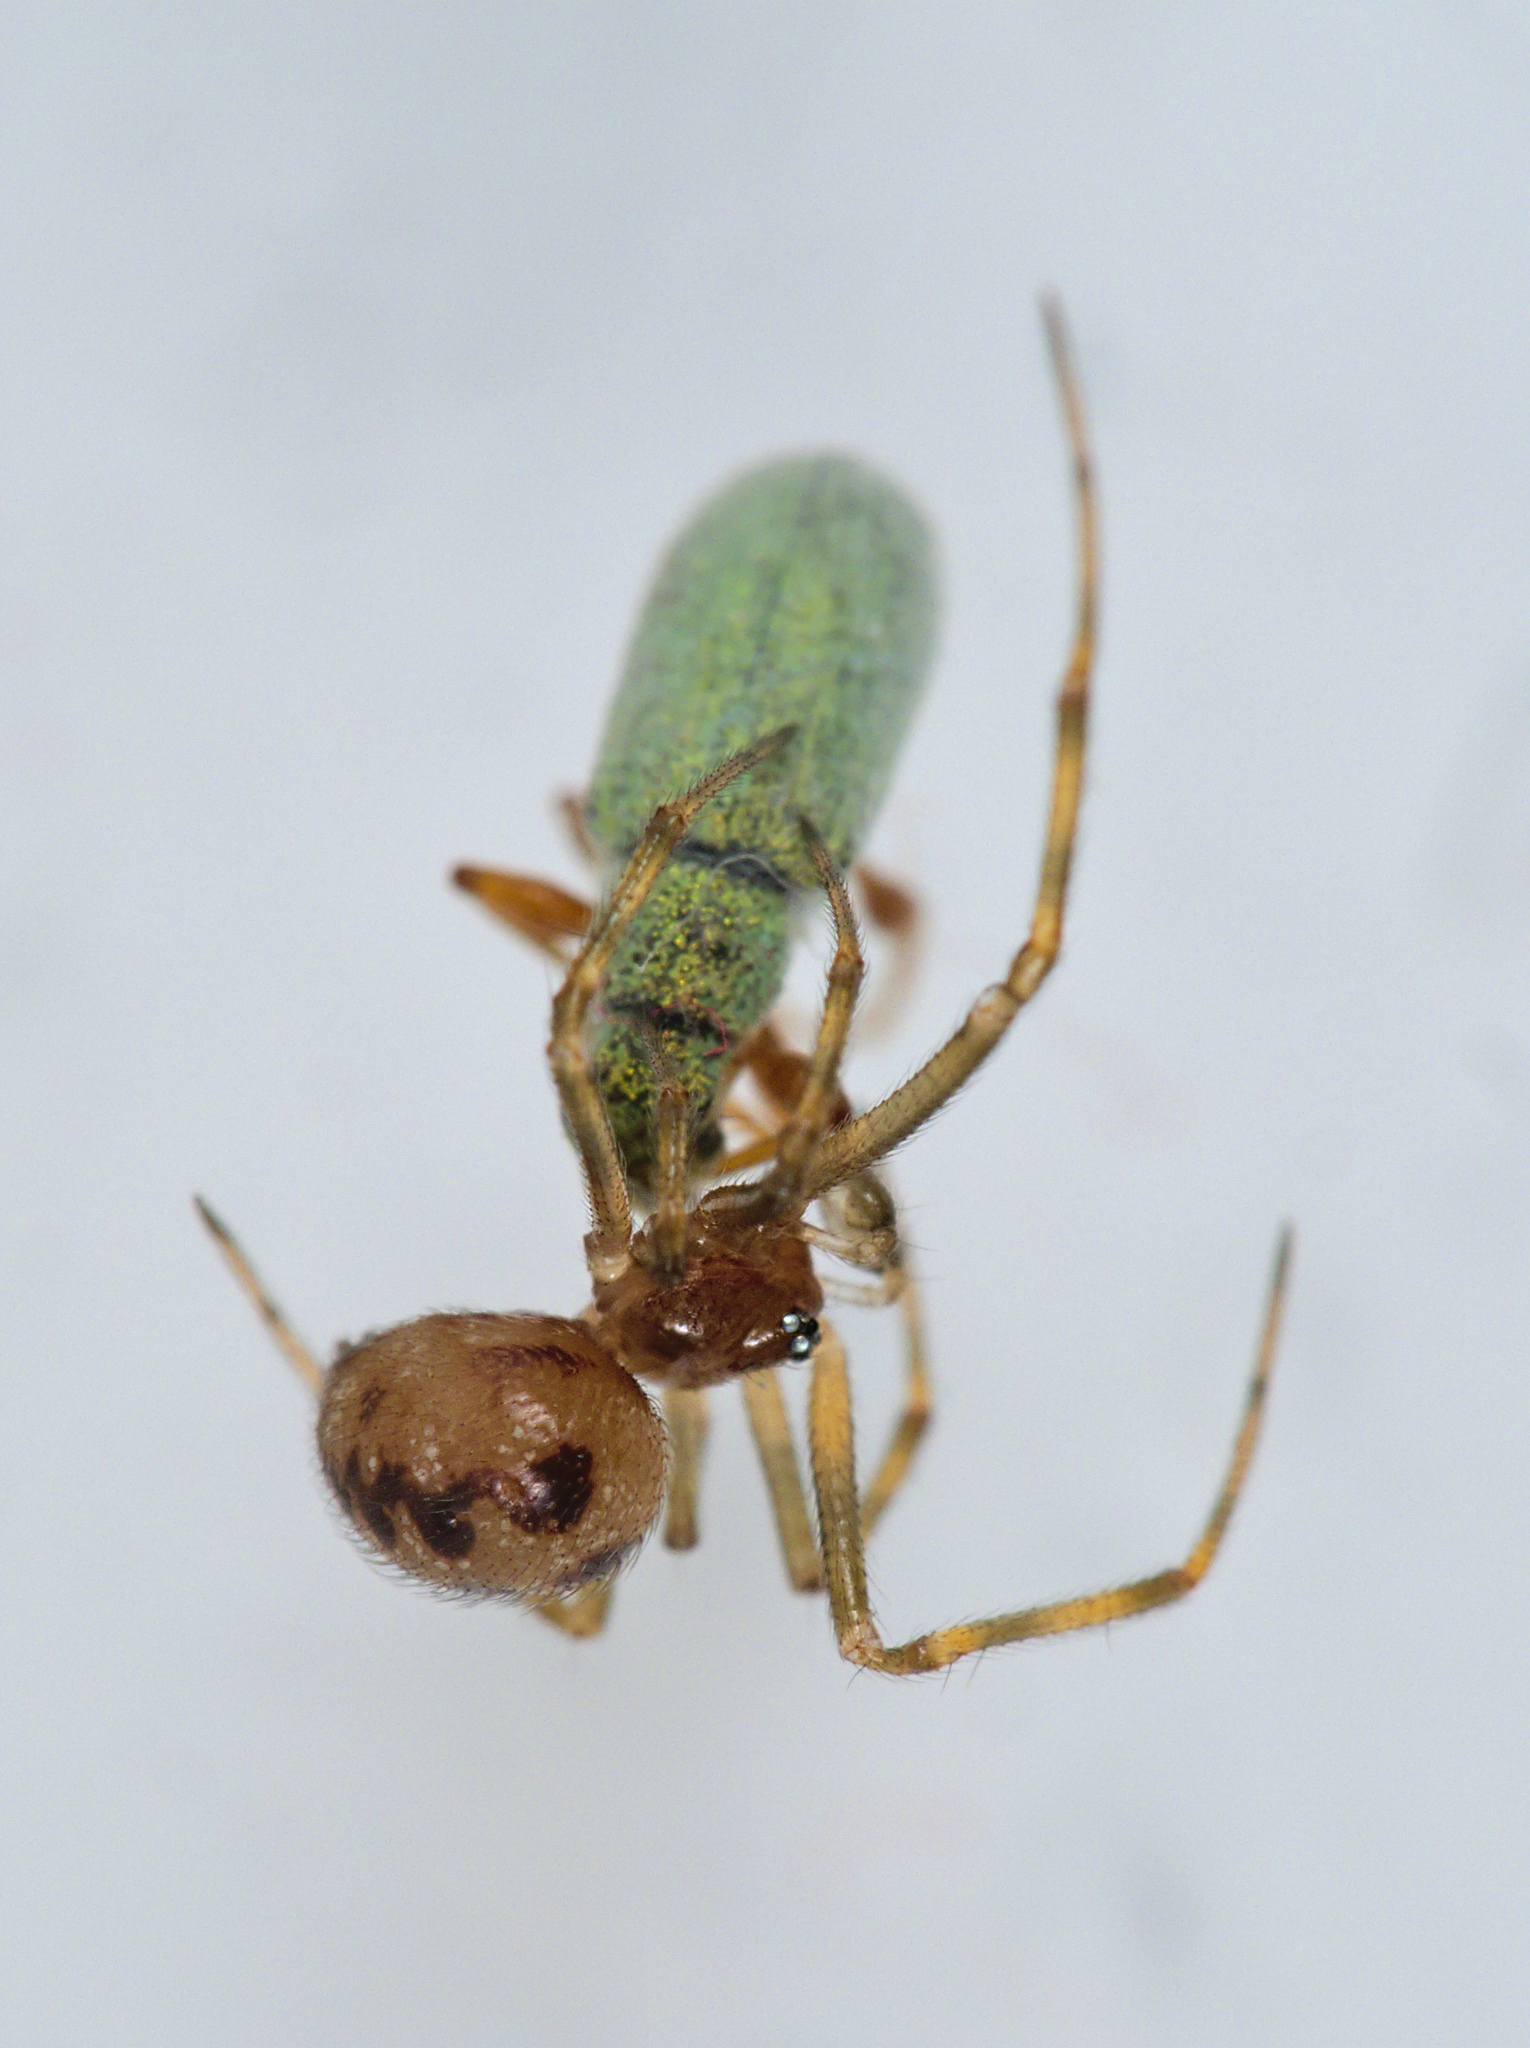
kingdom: Animalia
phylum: Arthropoda
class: Arachnida
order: Araneae
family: Theridiidae
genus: Steatoda
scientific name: Steatoda triangulosa
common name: Triangulate bud spider
